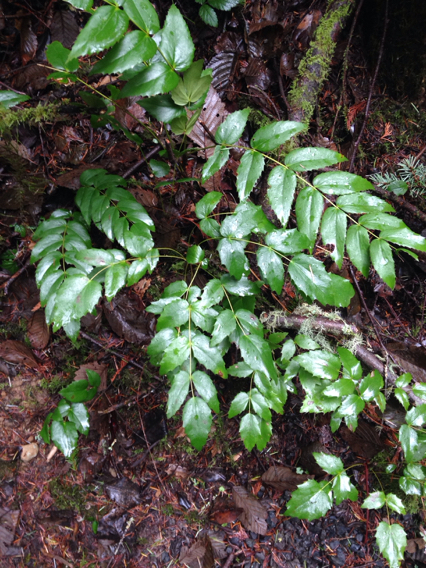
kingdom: Plantae
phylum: Tracheophyta
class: Magnoliopsida
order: Ranunculales
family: Berberidaceae
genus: Mahonia
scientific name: Mahonia nervosa
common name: Cascade oregon-grape
